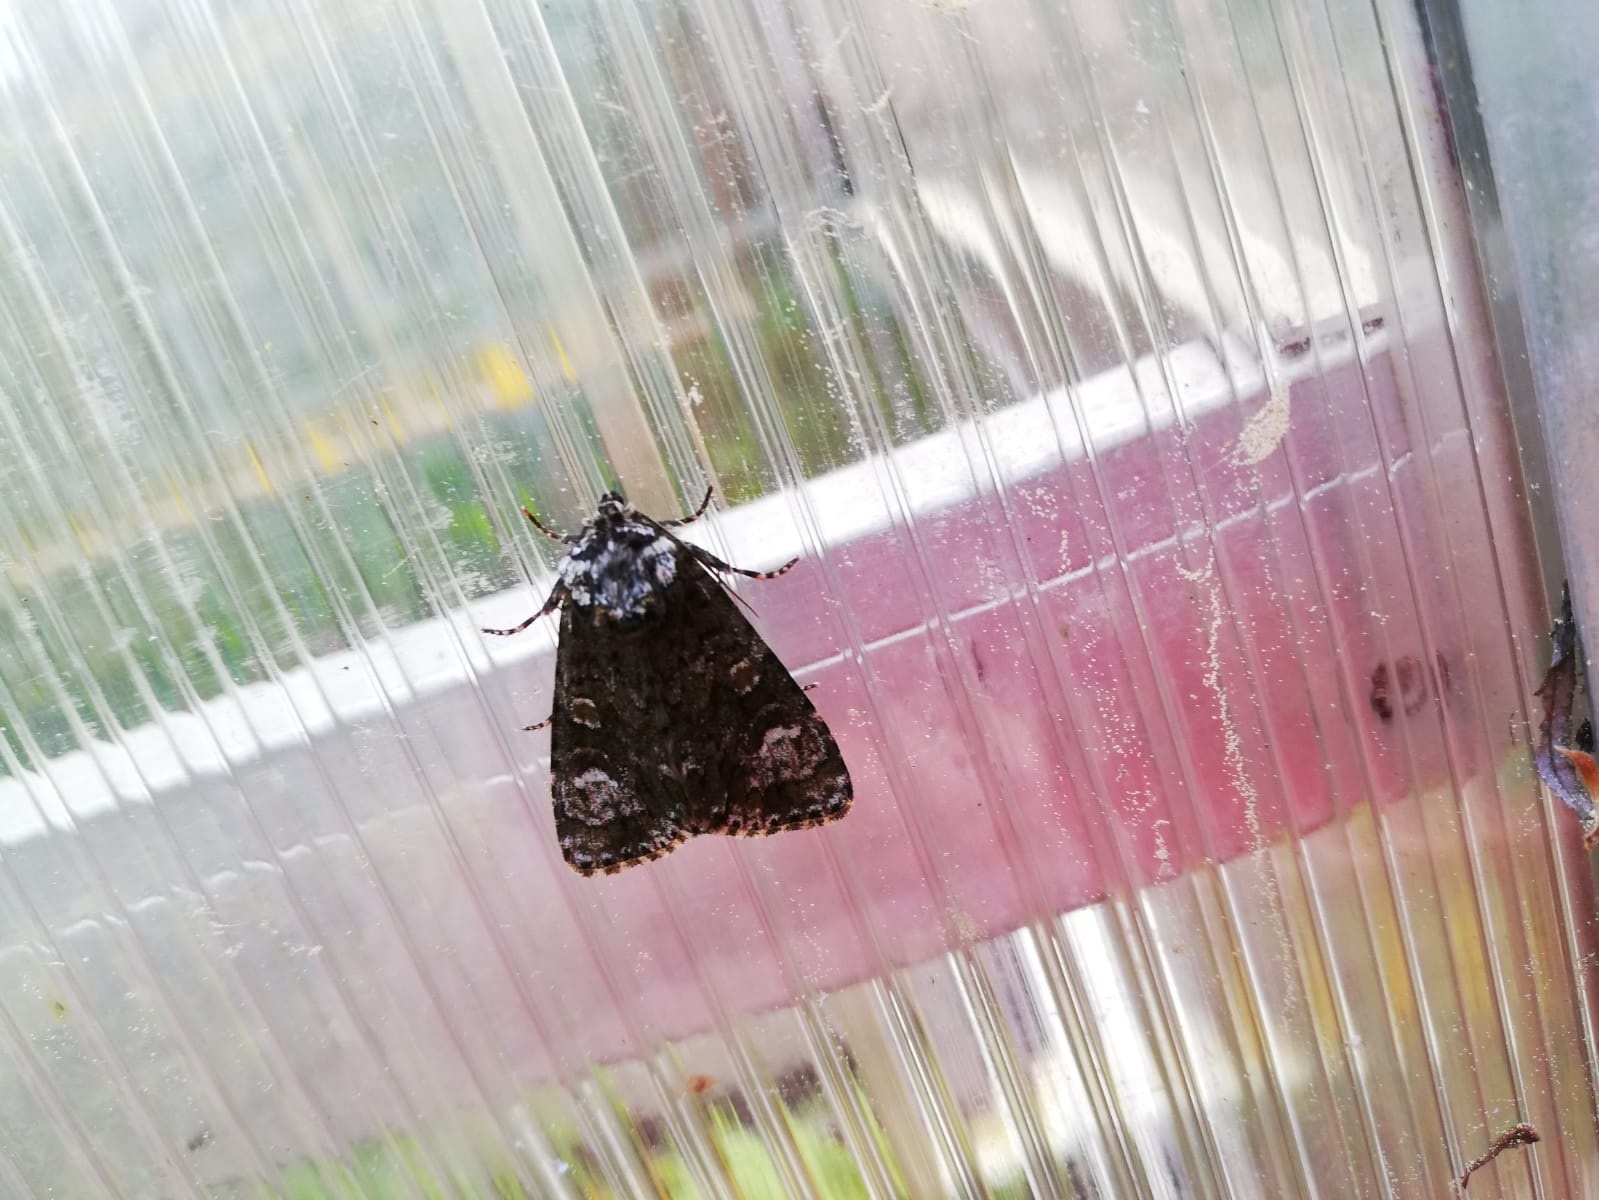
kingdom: Animalia
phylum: Arthropoda
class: Insecta
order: Lepidoptera
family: Noctuidae
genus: Craniophora
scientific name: Craniophora ligustri
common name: Coronet
